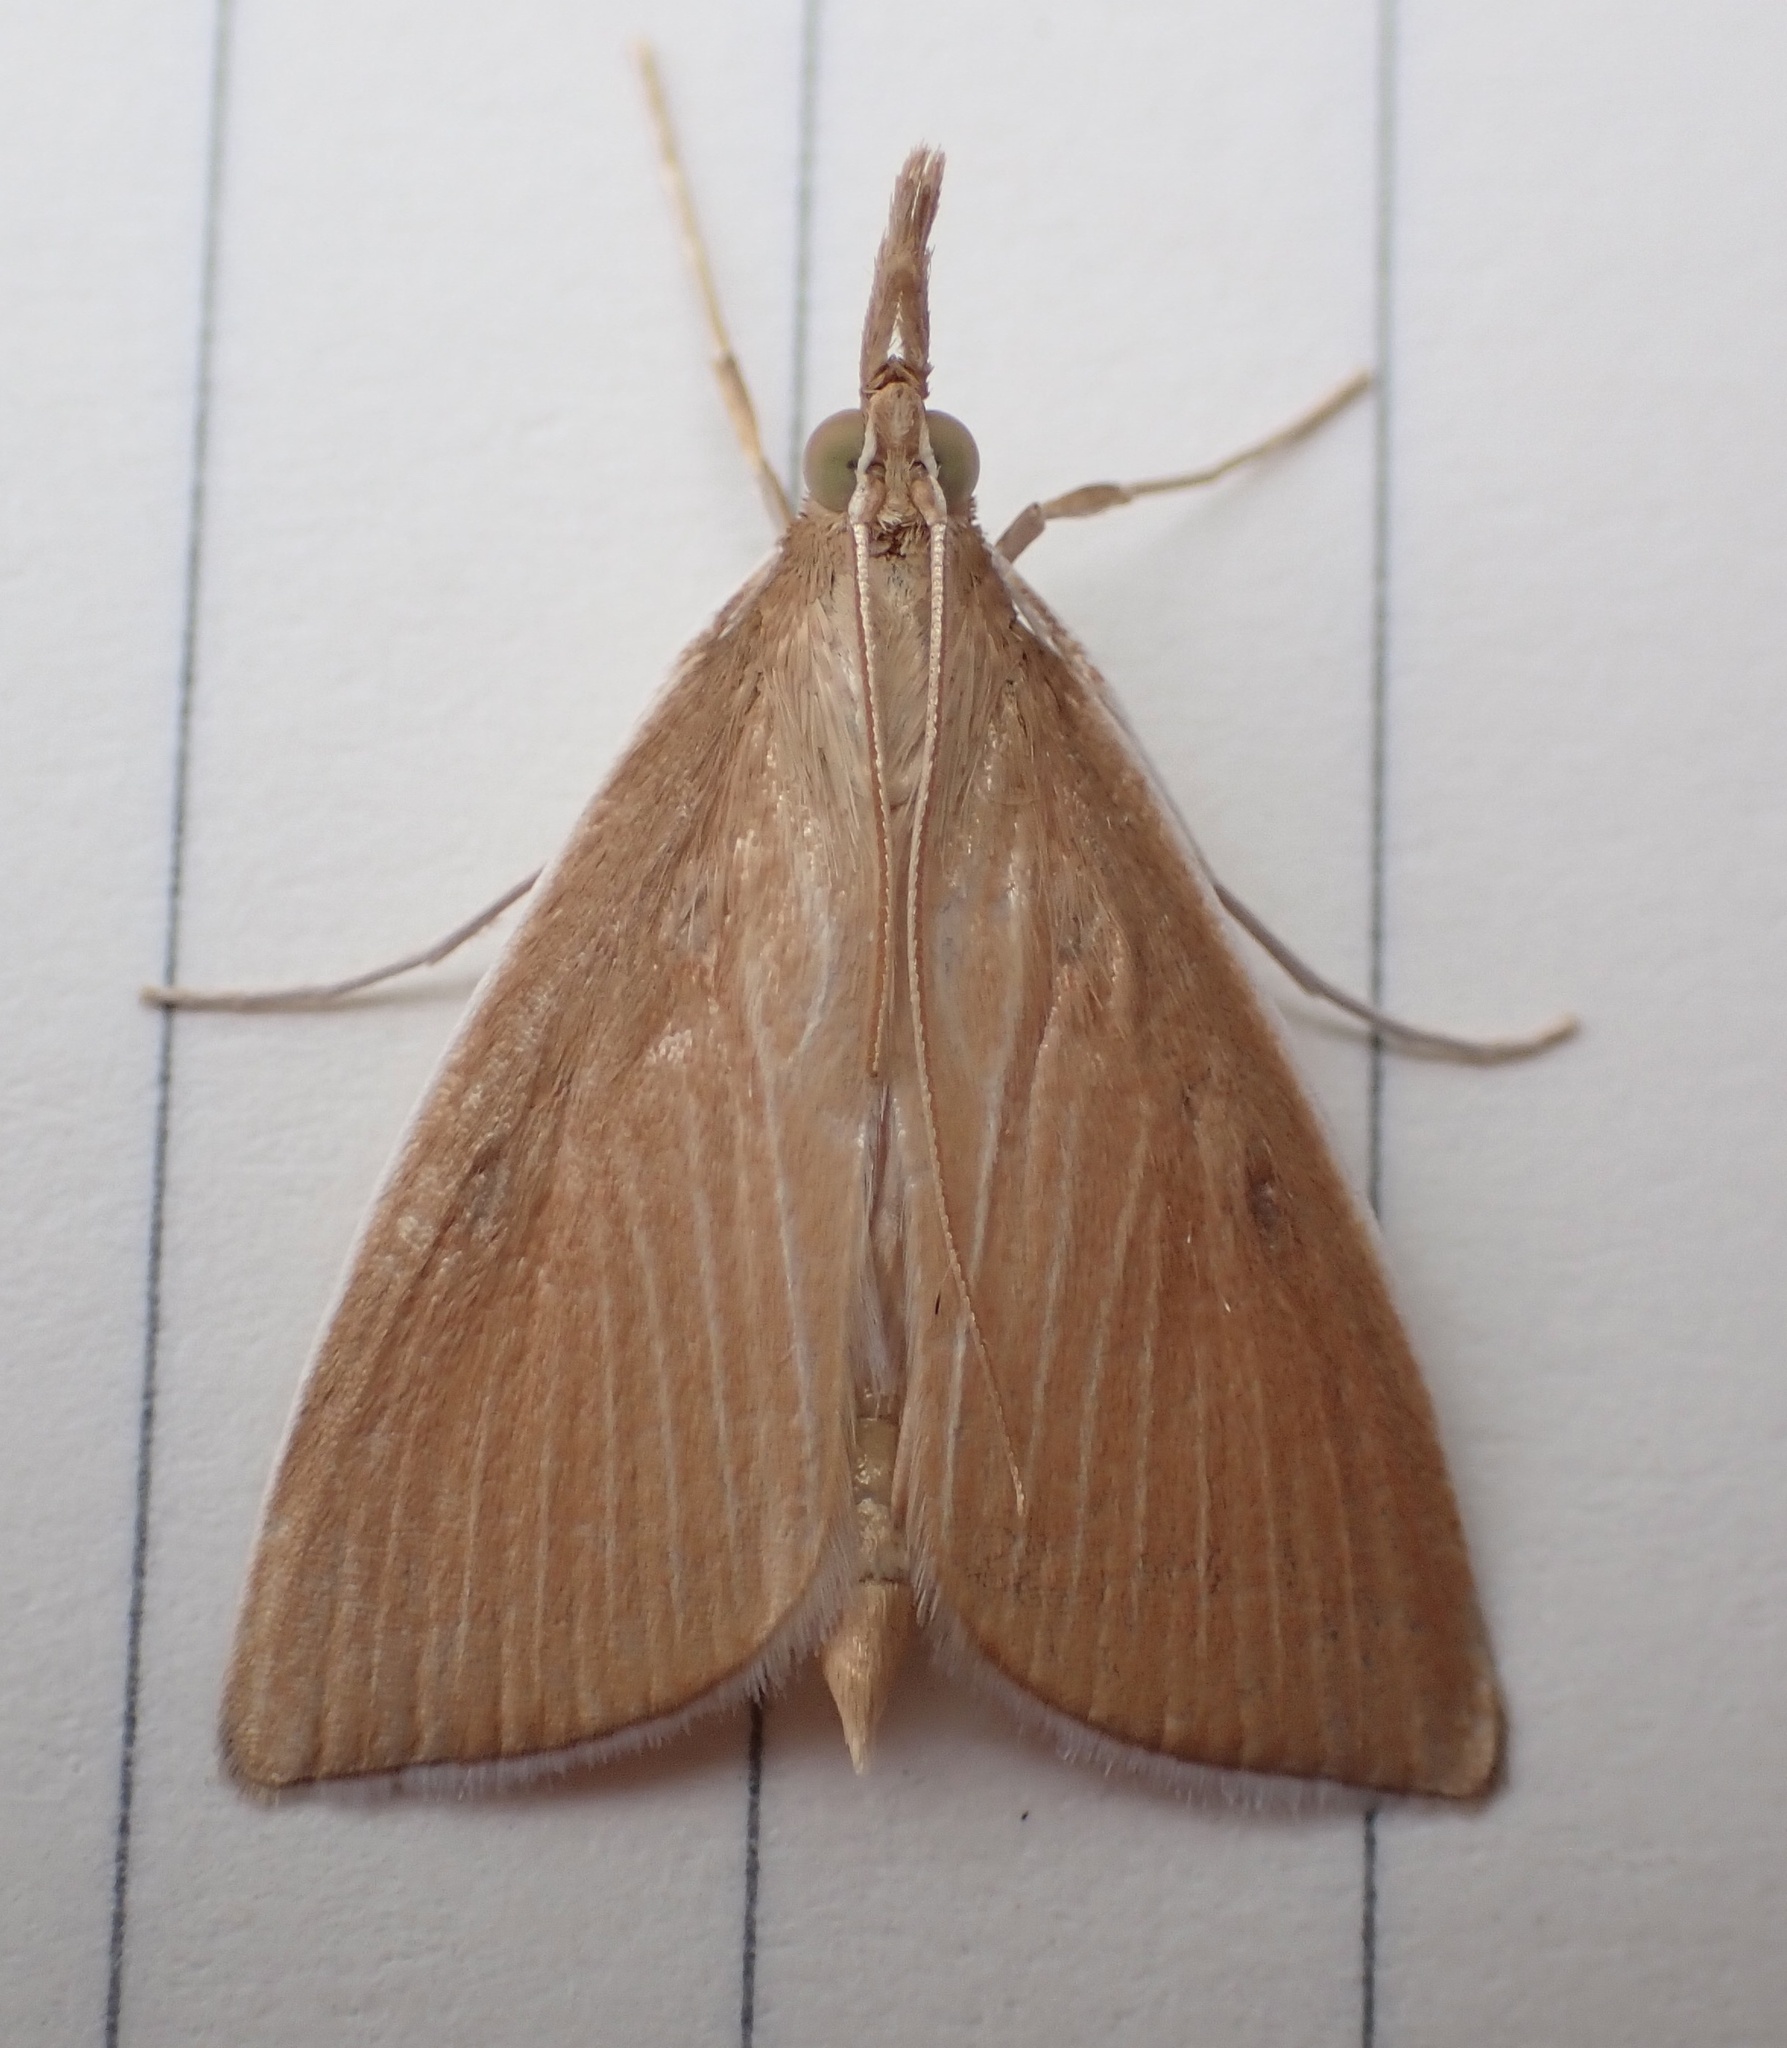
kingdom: Animalia
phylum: Arthropoda
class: Insecta
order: Lepidoptera
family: Crambidae
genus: Calamochrous
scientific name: Calamochrous Sclerocona acutella
